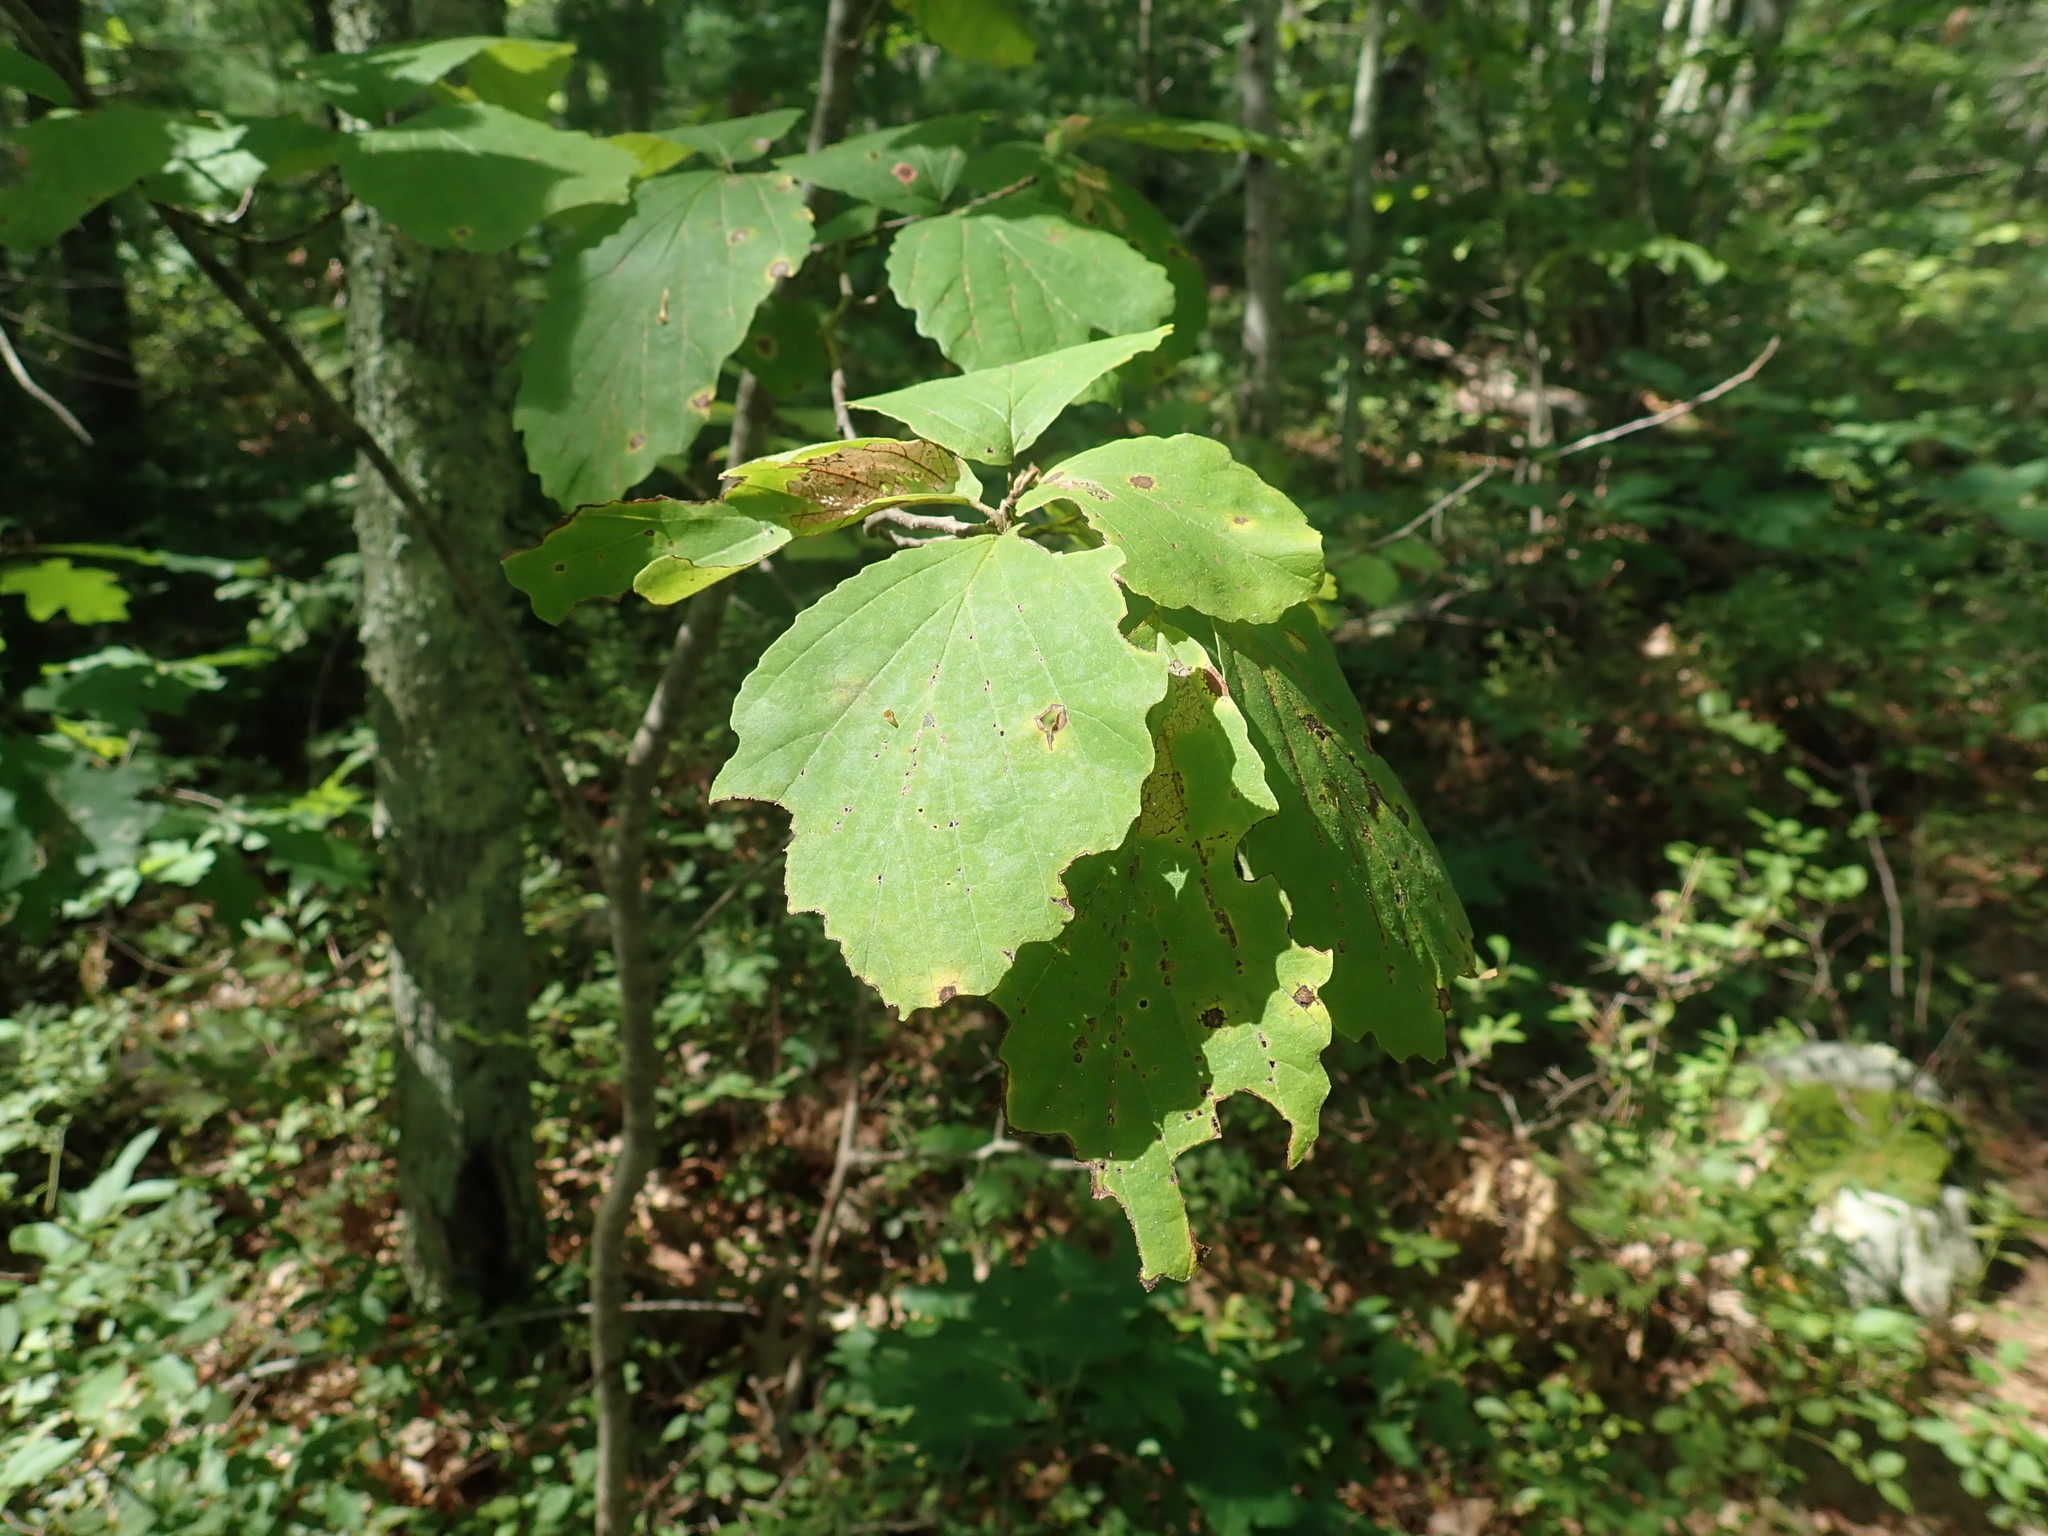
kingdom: Plantae
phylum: Tracheophyta
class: Magnoliopsida
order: Saxifragales
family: Hamamelidaceae
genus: Hamamelis
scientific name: Hamamelis virginiana
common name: Witch-hazel
